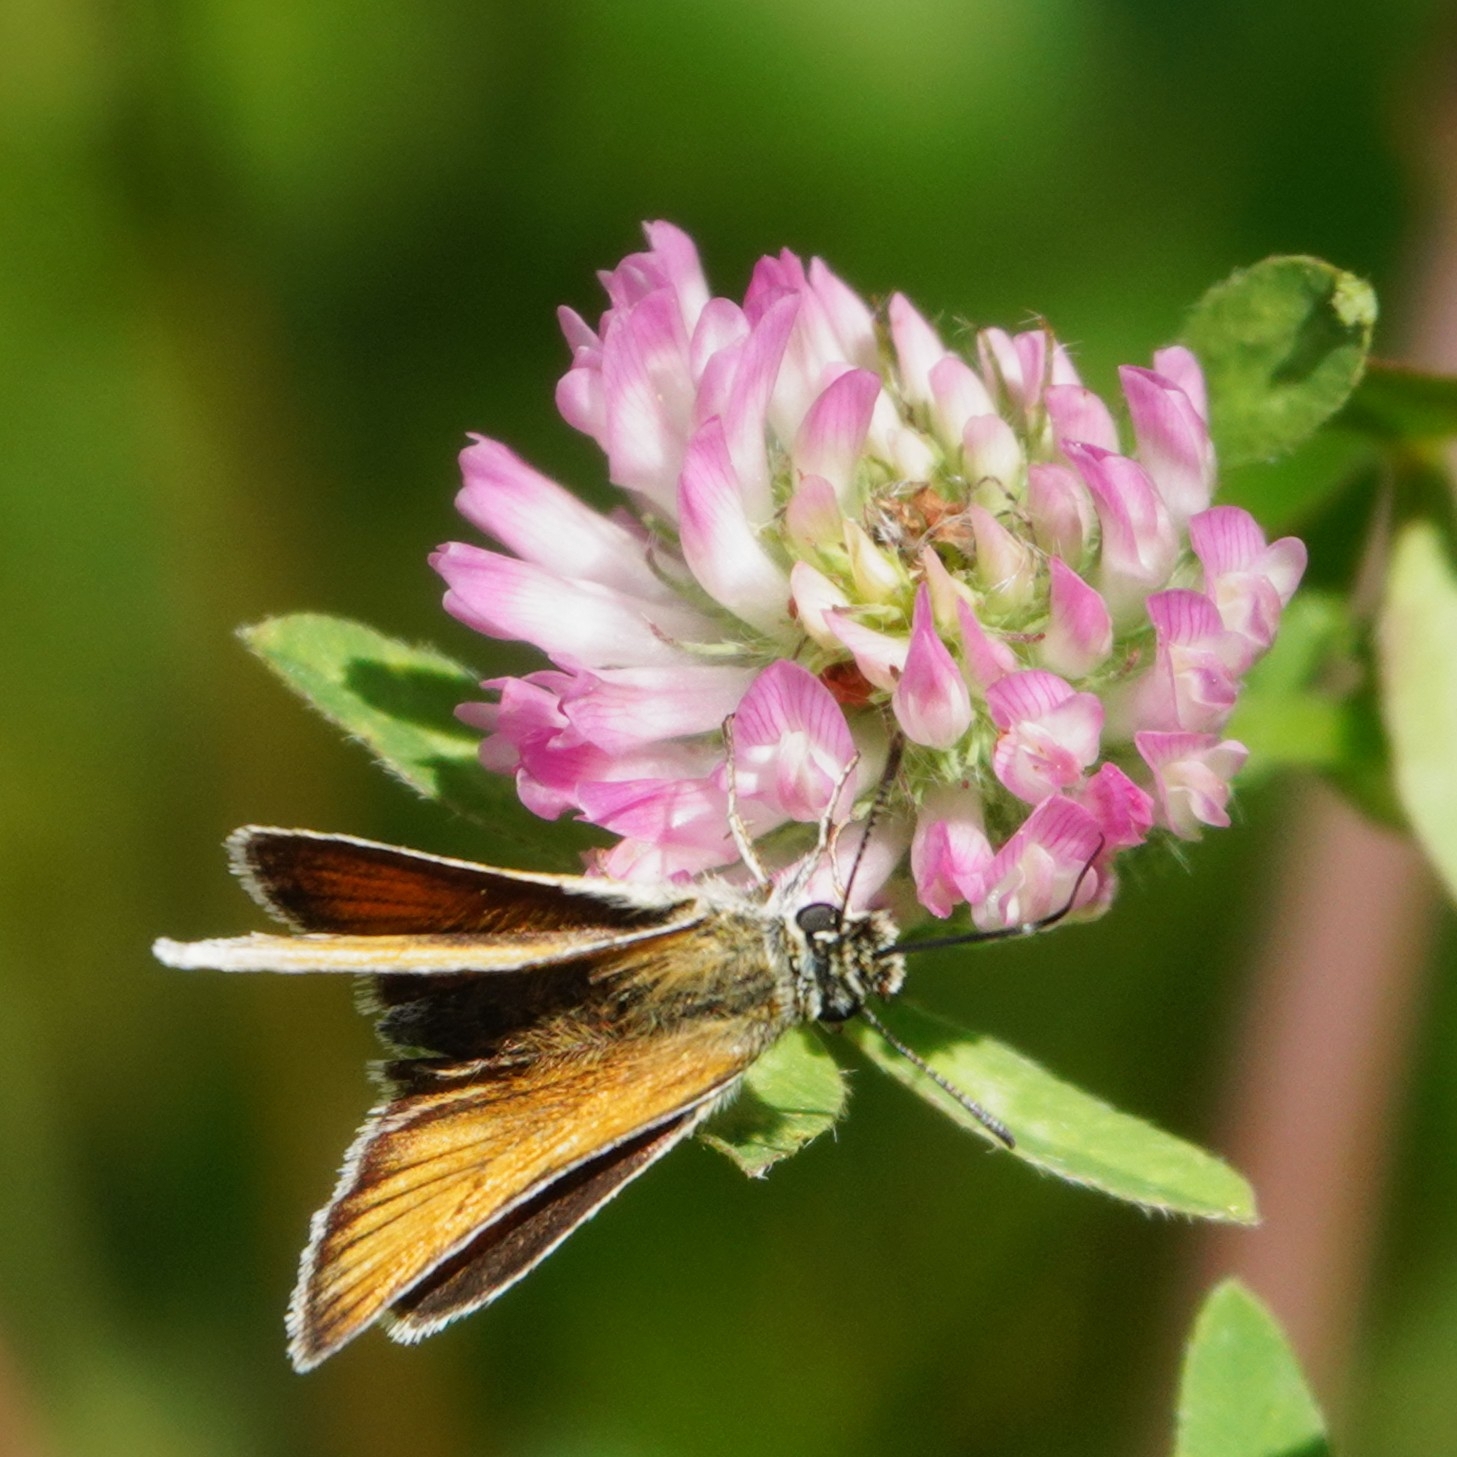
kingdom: Animalia
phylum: Arthropoda
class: Insecta
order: Lepidoptera
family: Hesperiidae
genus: Thymelicus
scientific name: Thymelicus lineola
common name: Essex skipper
